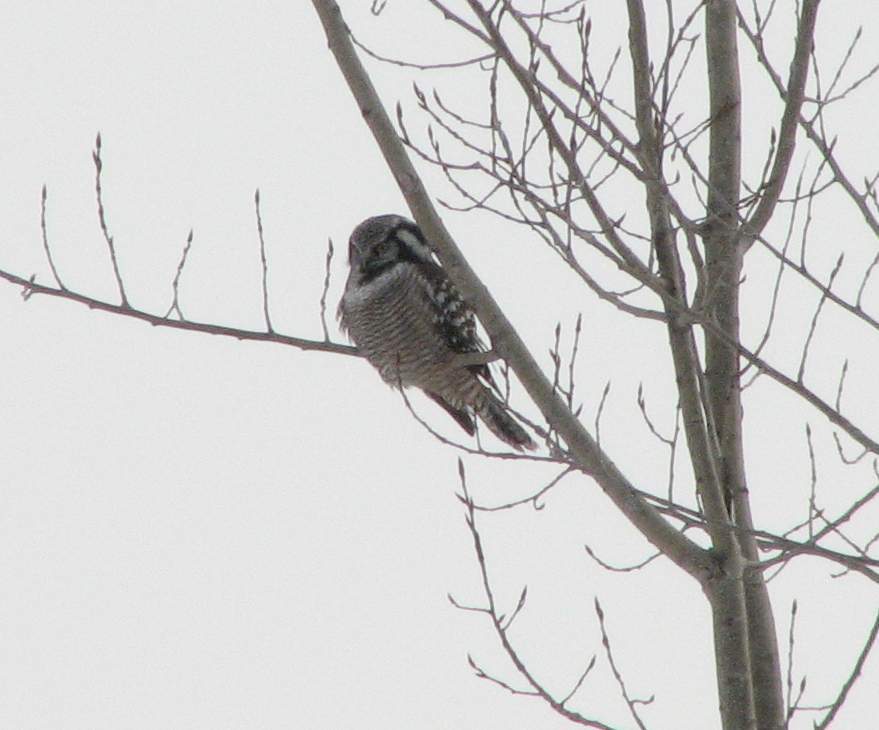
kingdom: Animalia
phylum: Chordata
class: Aves
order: Strigiformes
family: Strigidae
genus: Surnia
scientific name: Surnia ulula
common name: Northern hawk-owl
